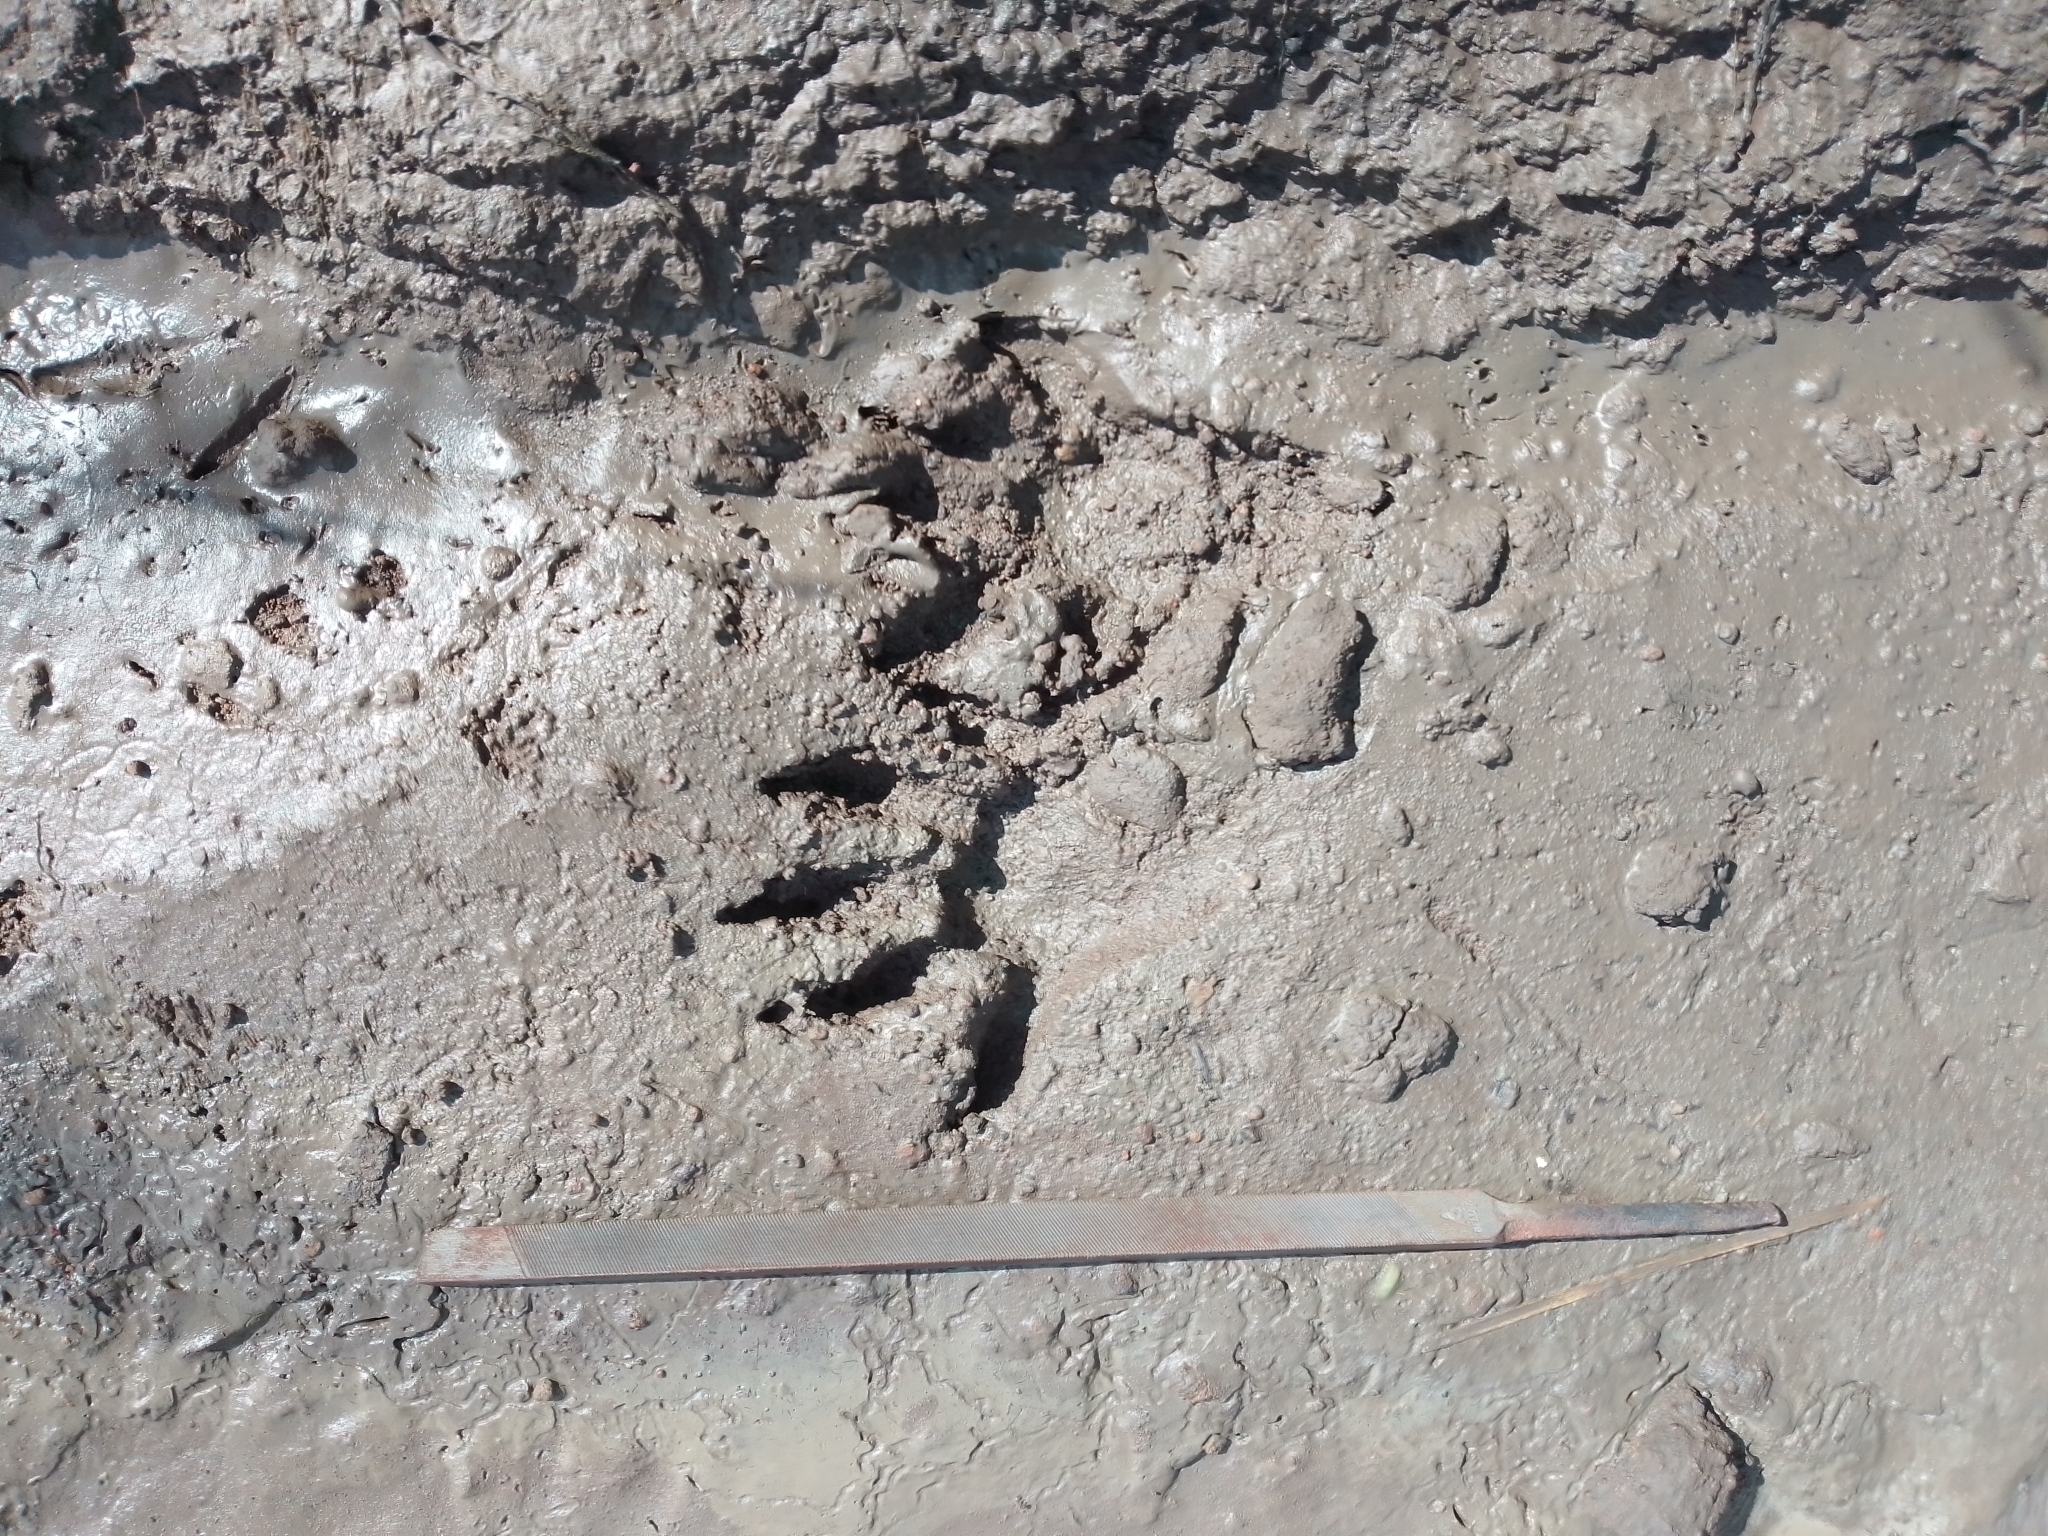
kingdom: Animalia
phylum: Chordata
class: Mammalia
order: Carnivora
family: Procyonidae
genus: Procyon
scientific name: Procyon lotor
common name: Raccoon
